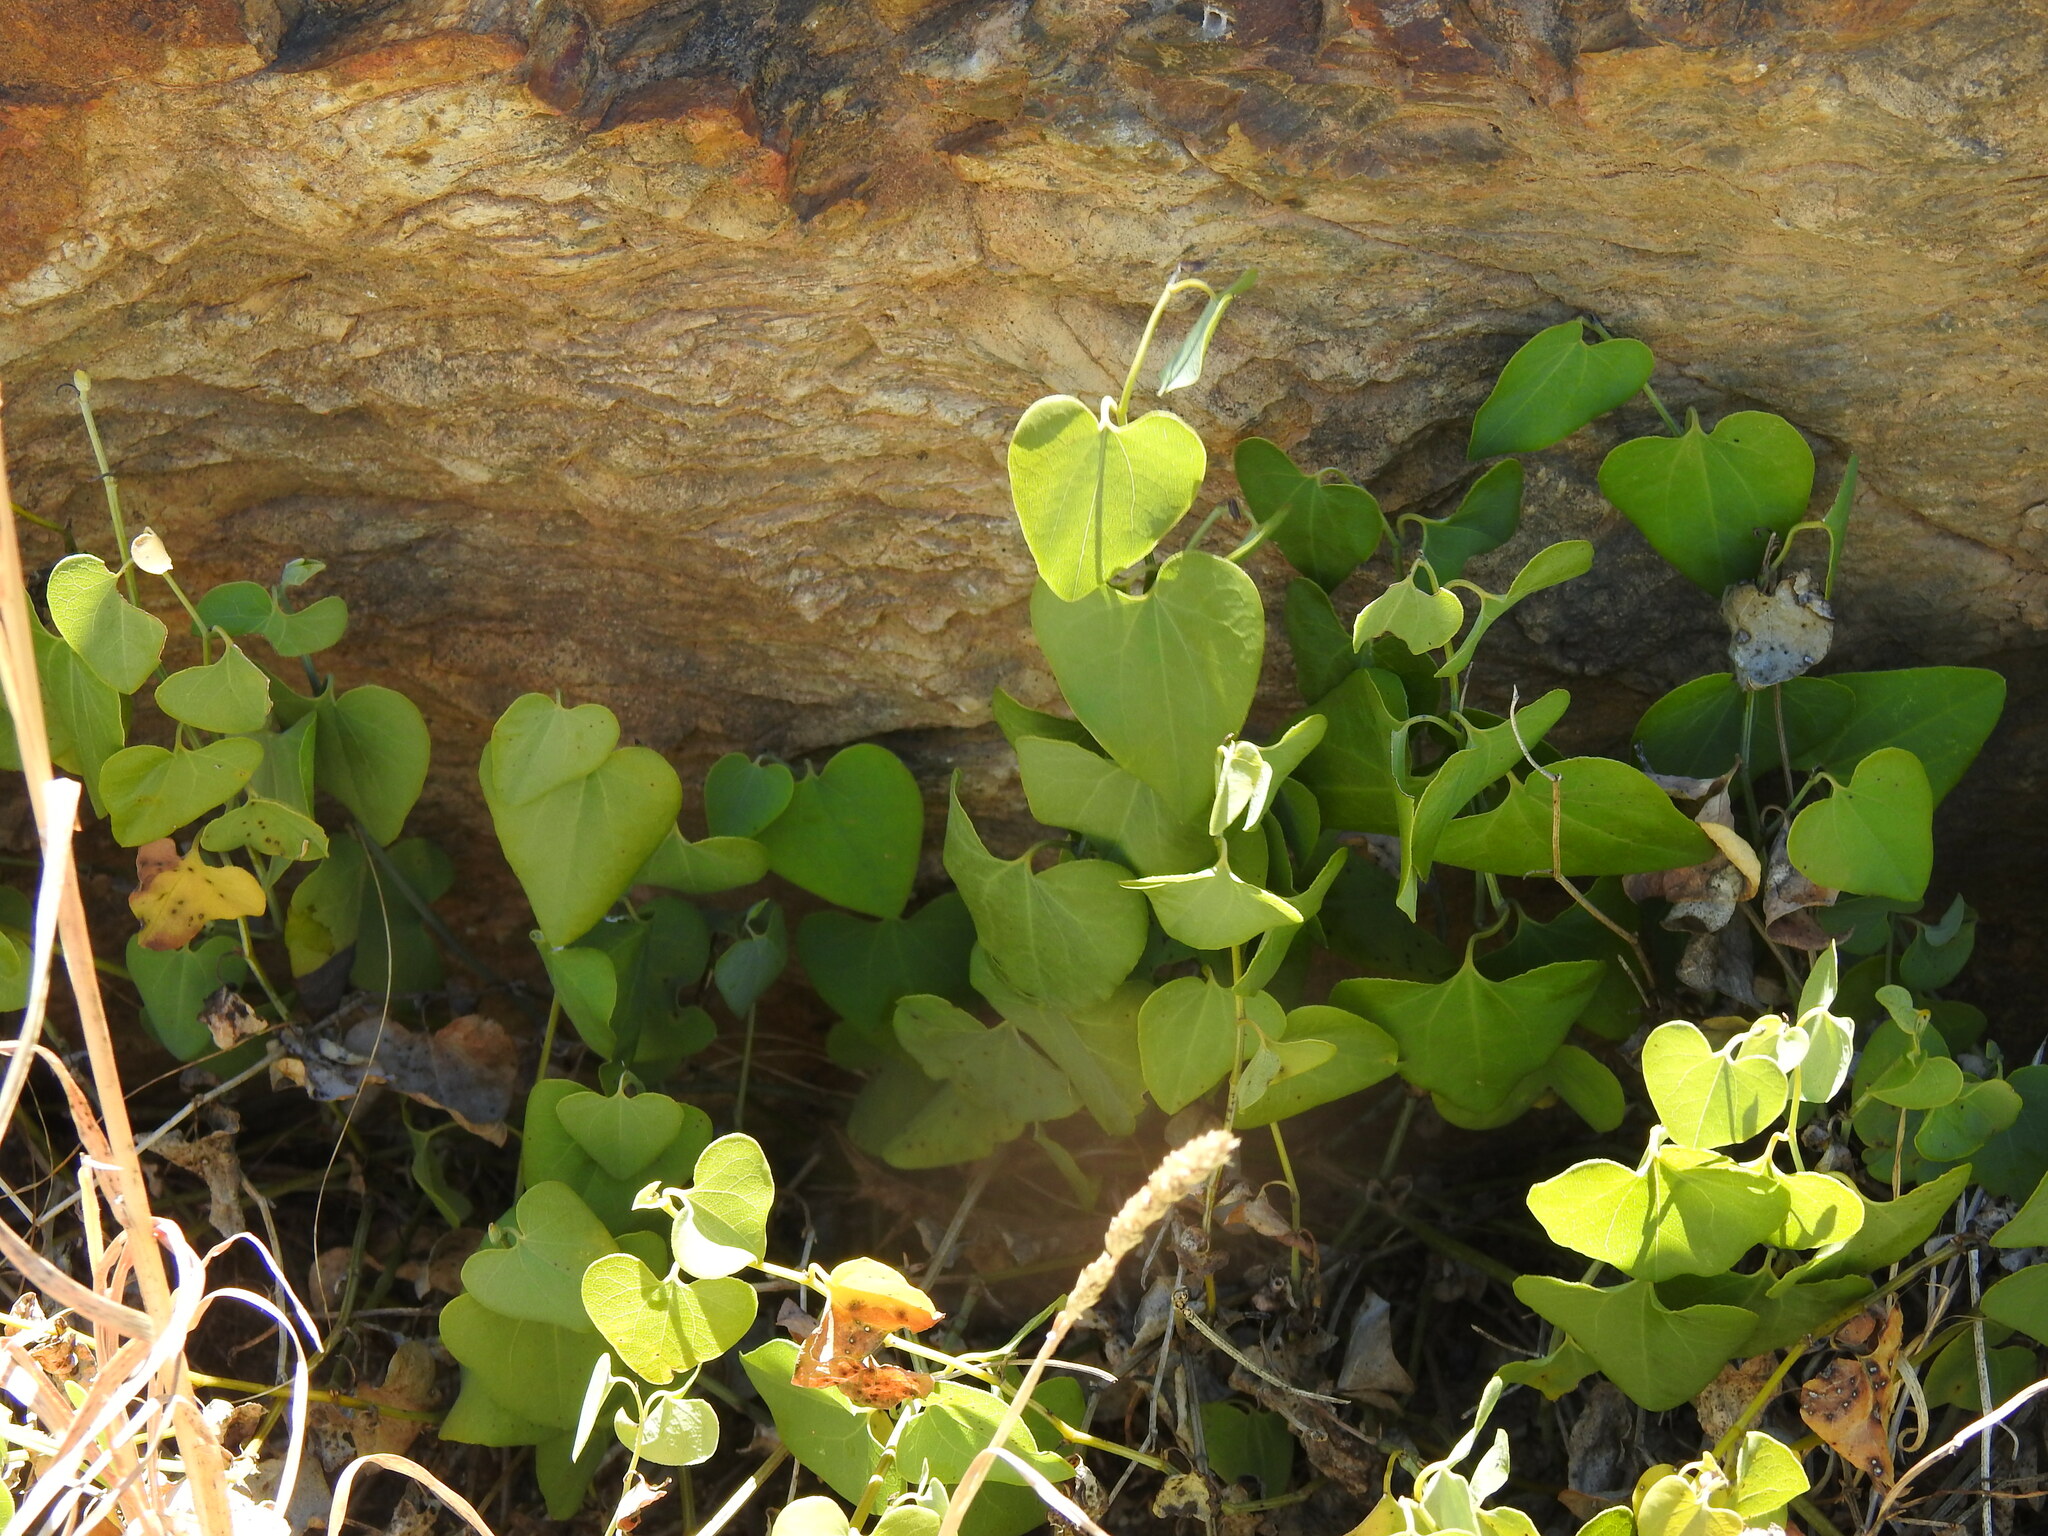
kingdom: Plantae
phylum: Tracheophyta
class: Magnoliopsida
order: Piperales
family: Aristolochiaceae
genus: Aristolochia
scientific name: Aristolochia baetica
